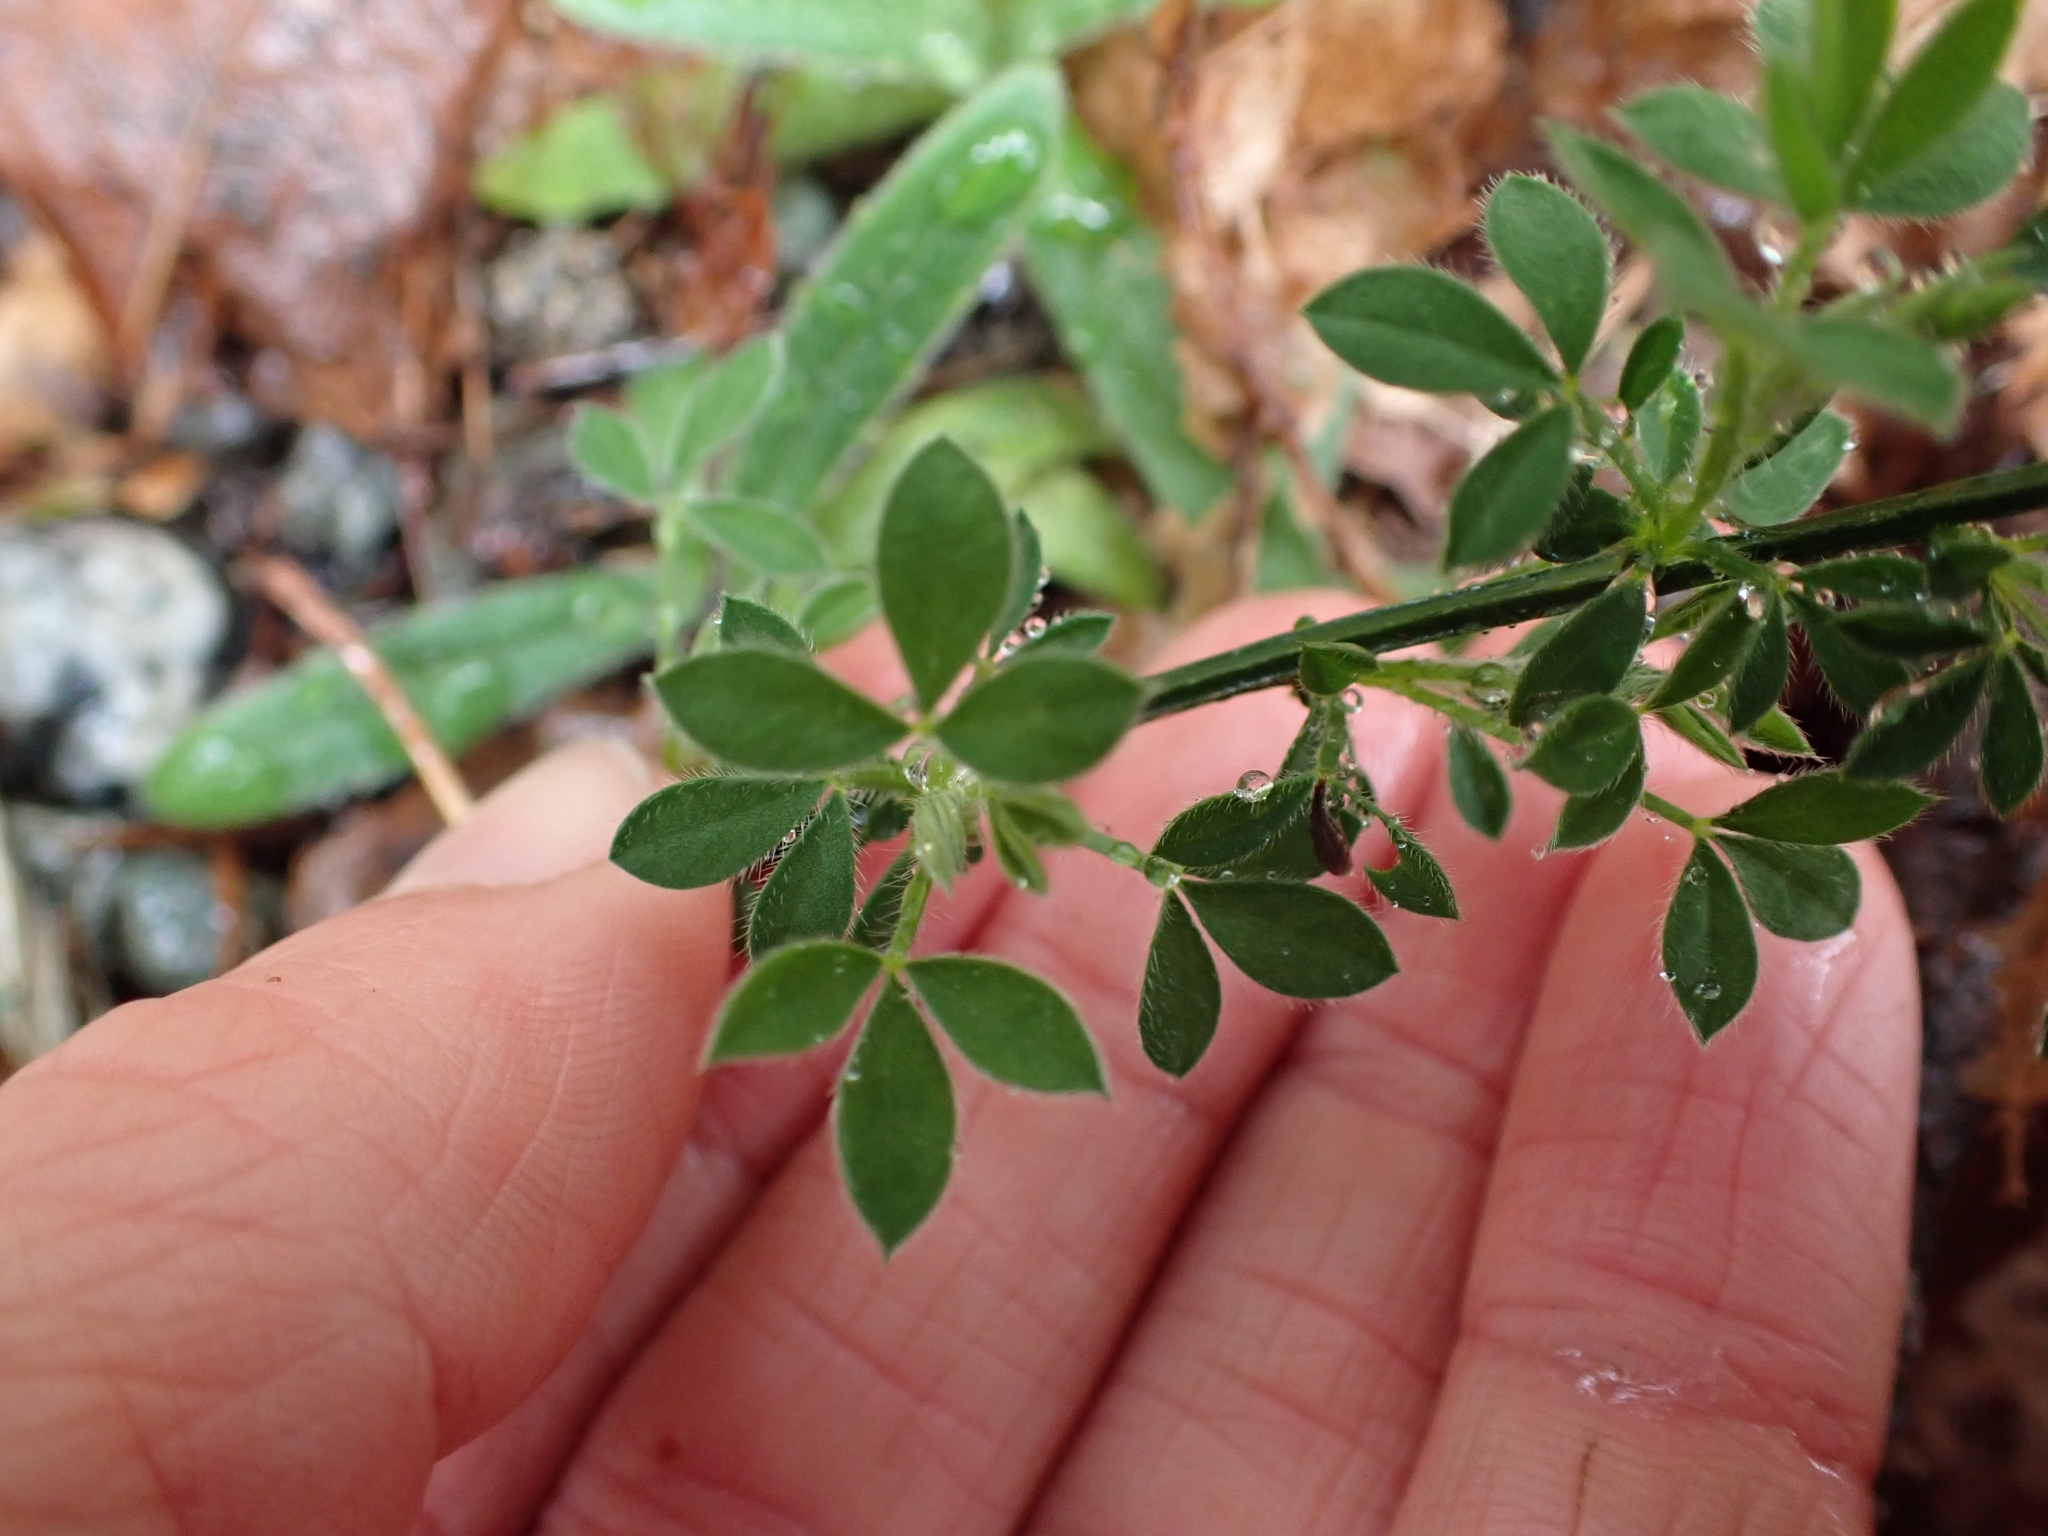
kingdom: Plantae
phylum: Tracheophyta
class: Magnoliopsida
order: Fabales
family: Fabaceae
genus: Cytisus
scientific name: Cytisus scoparius
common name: Scotch broom
